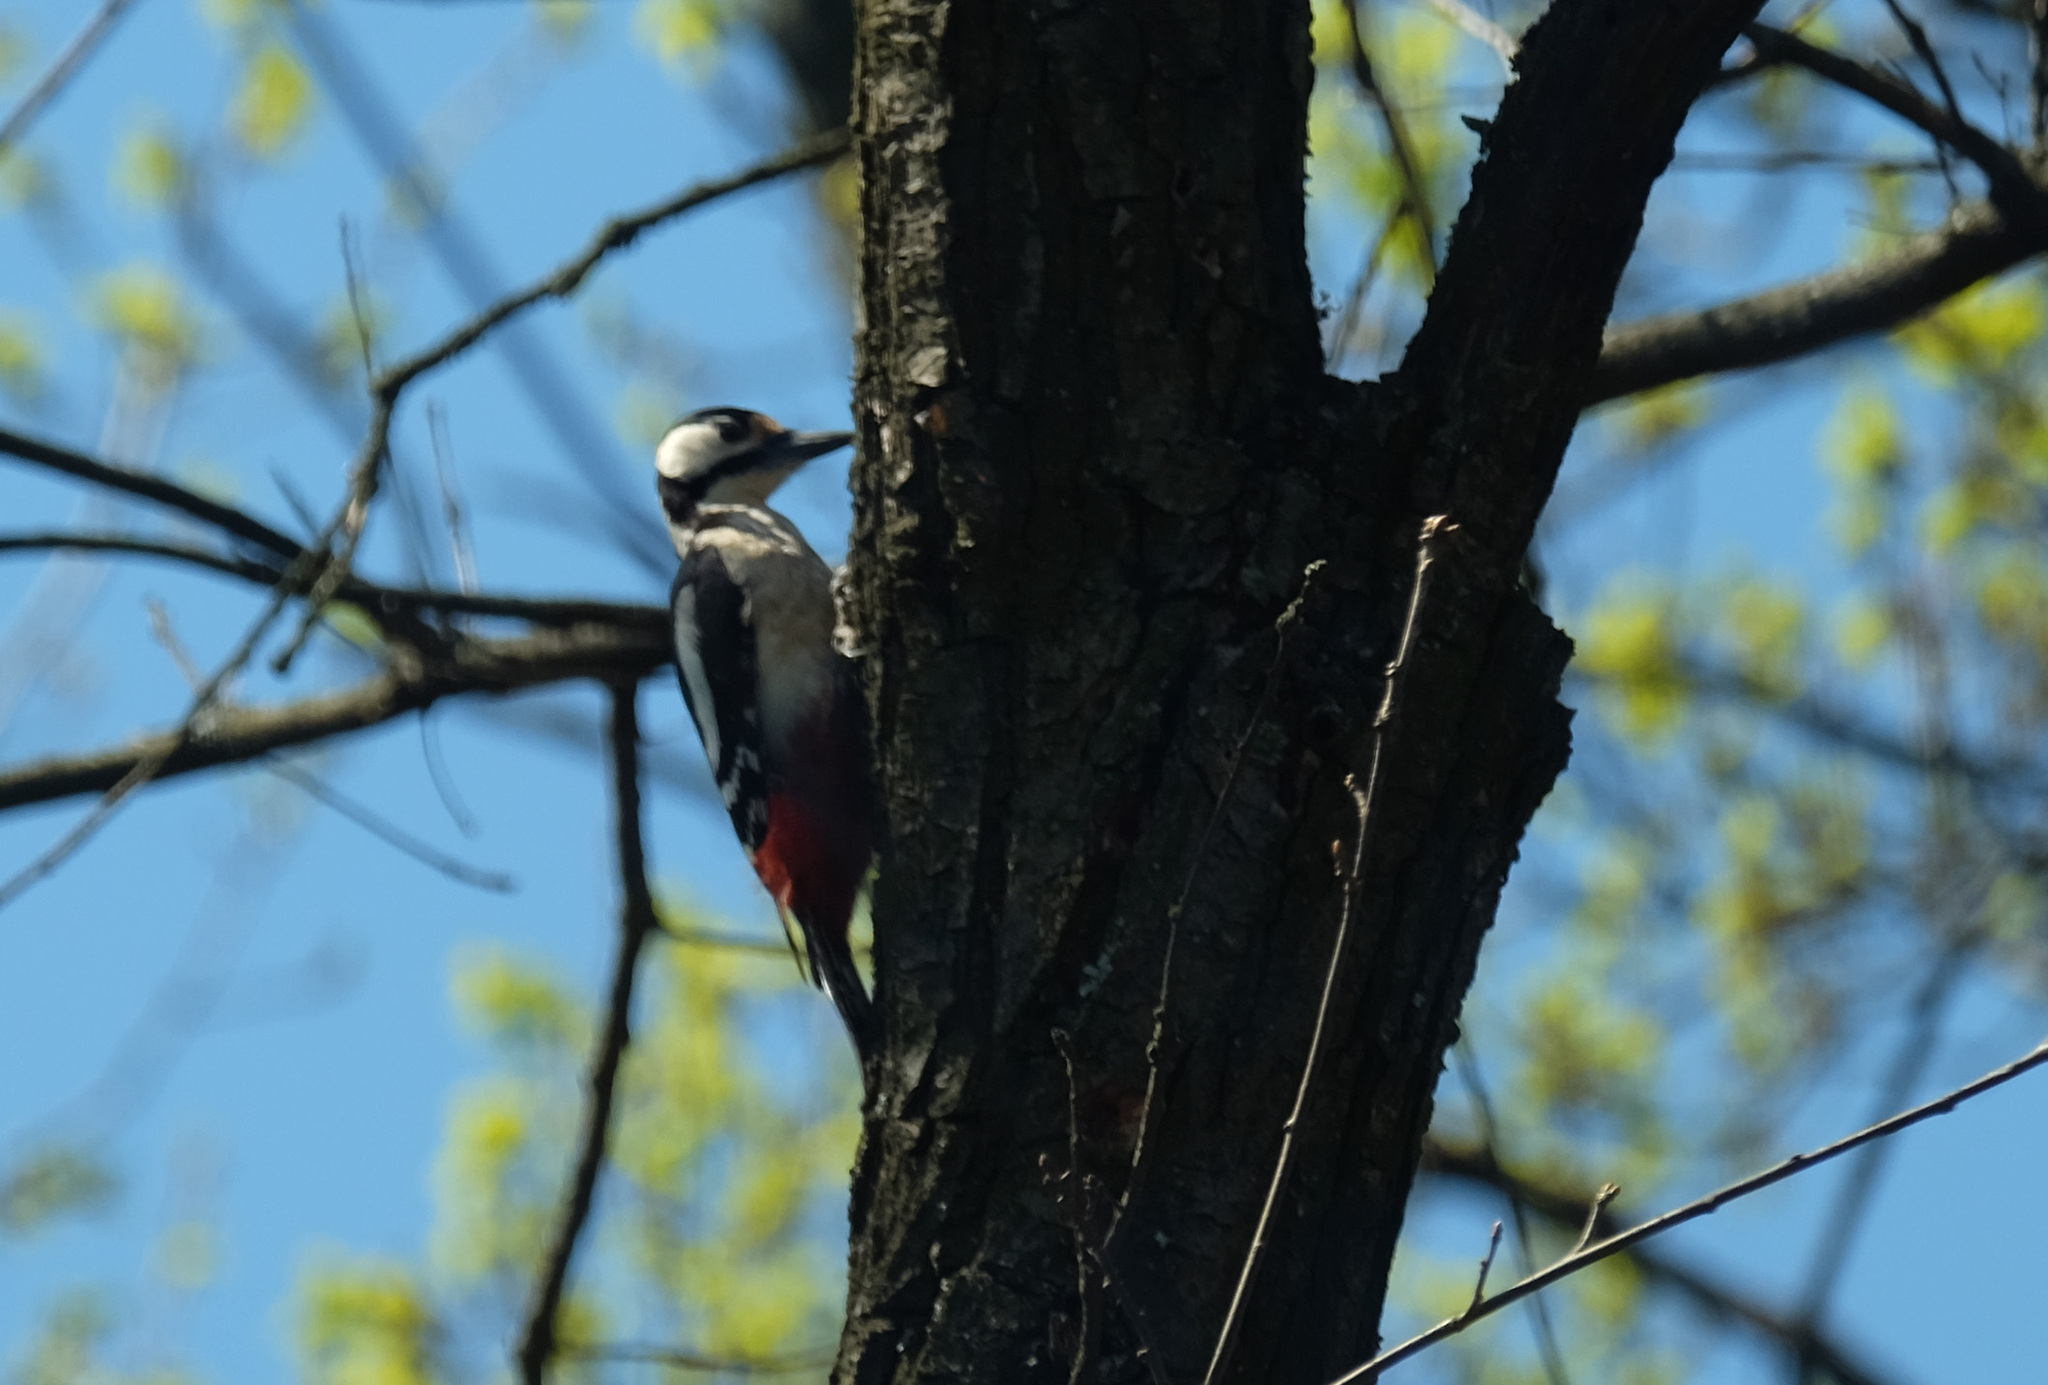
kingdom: Animalia
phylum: Chordata
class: Aves
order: Piciformes
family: Picidae
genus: Dendrocopos
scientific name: Dendrocopos major
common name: Great spotted woodpecker
